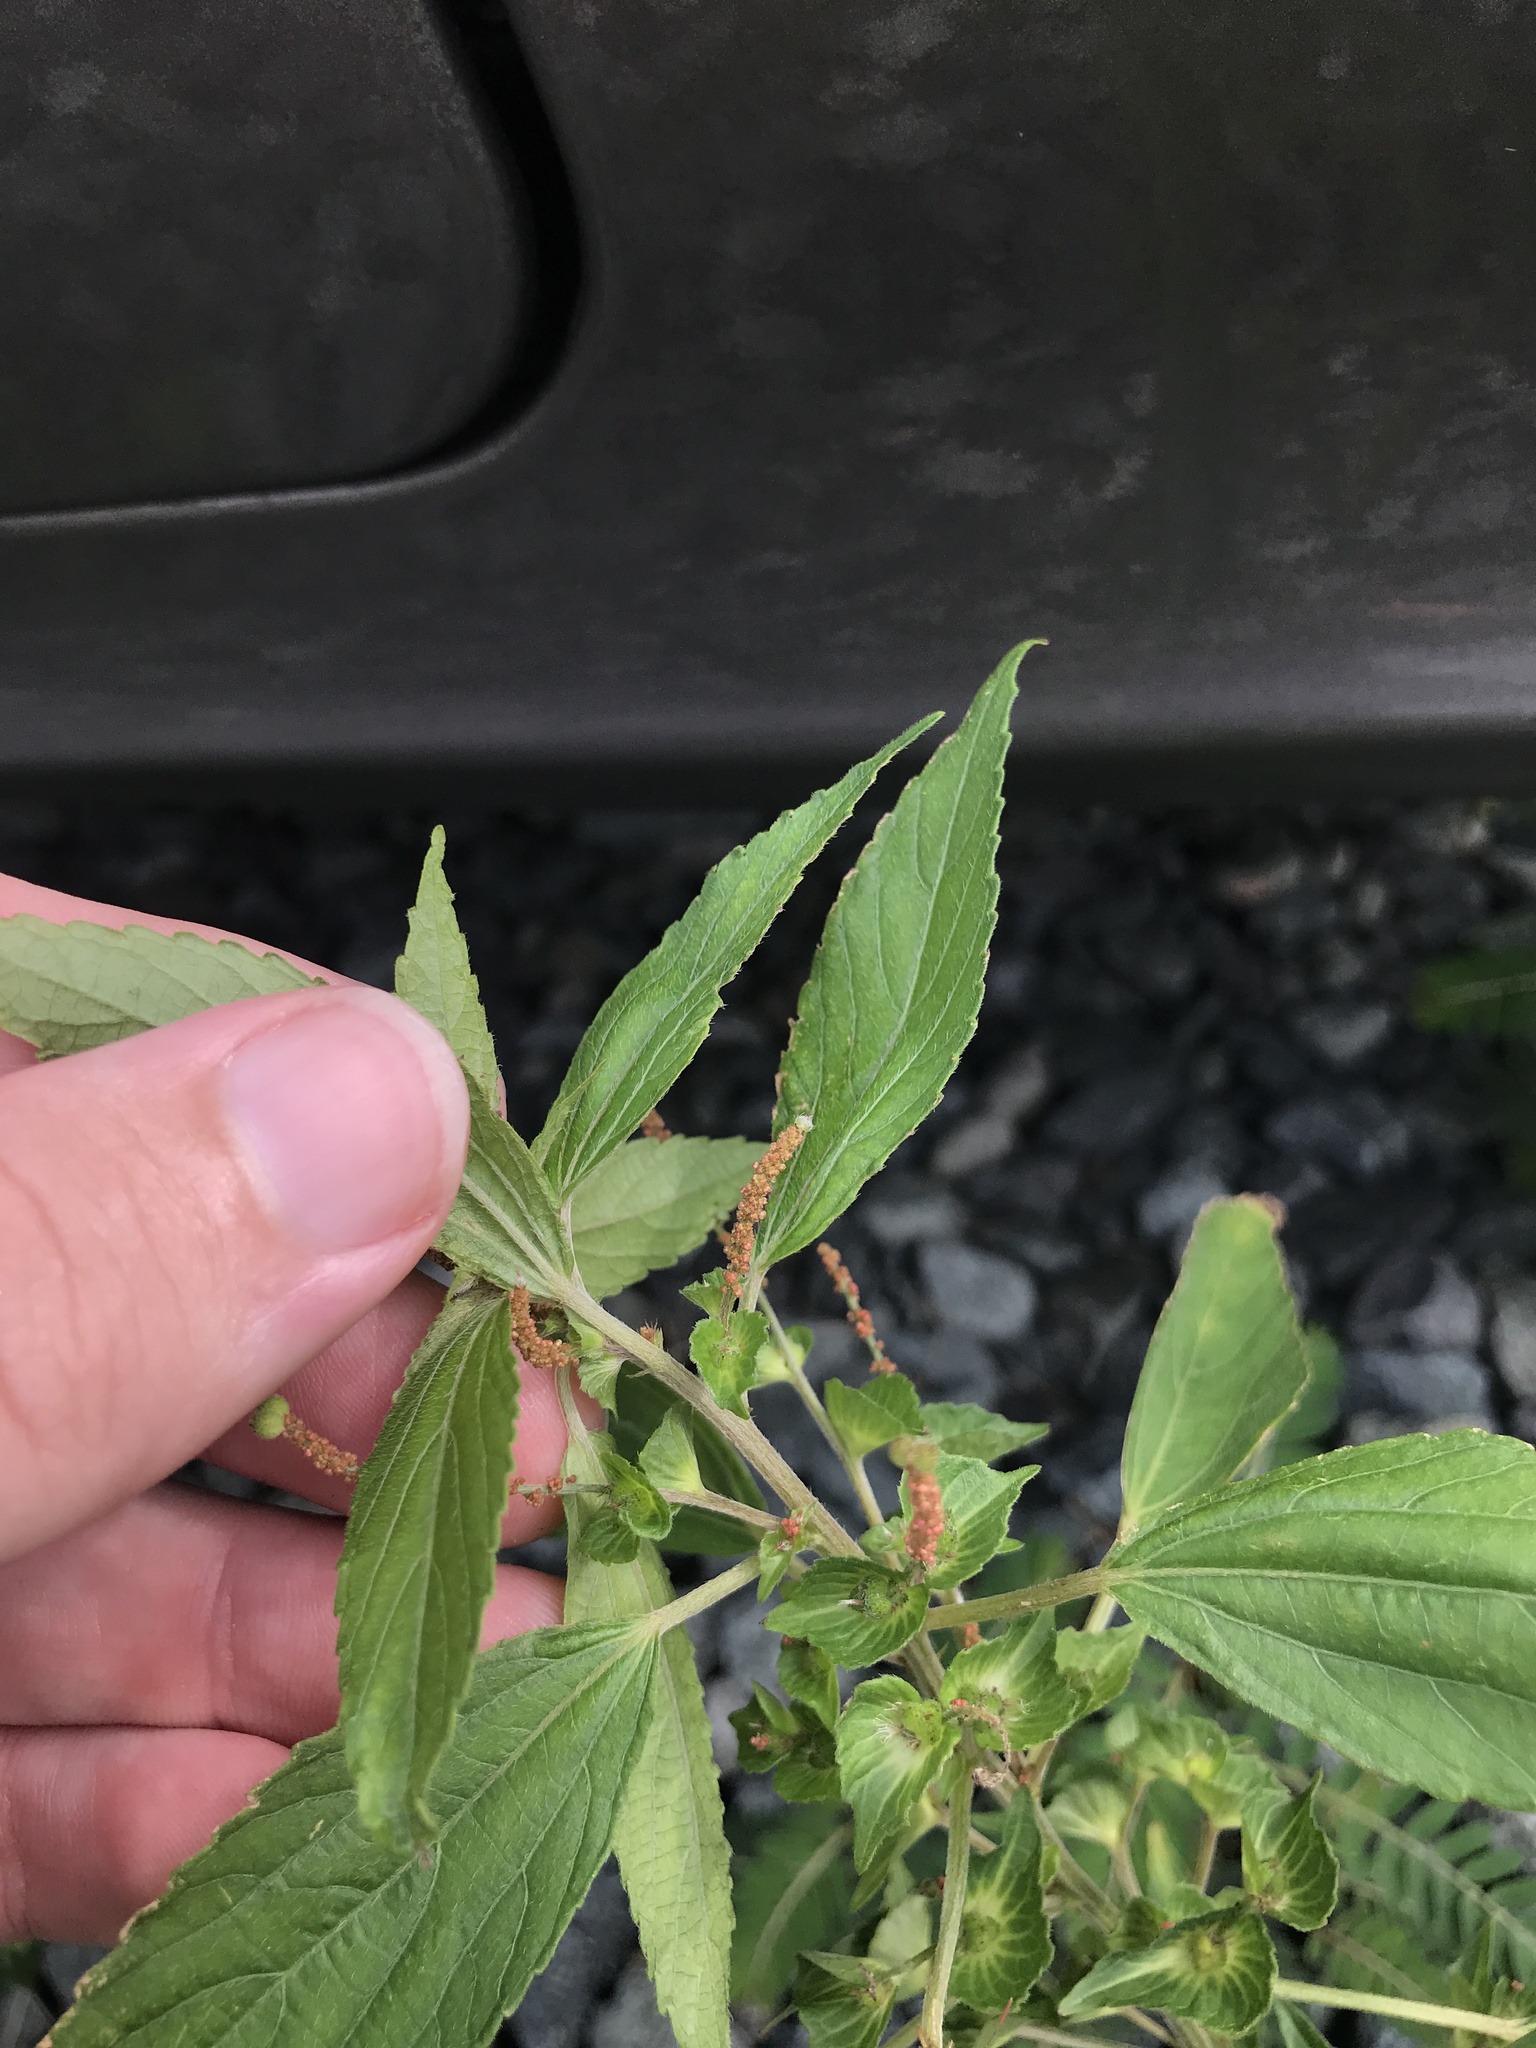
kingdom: Plantae
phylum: Tracheophyta
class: Magnoliopsida
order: Malpighiales
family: Euphorbiaceae
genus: Acalypha
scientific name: Acalypha australis
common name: Asian copperleaf
